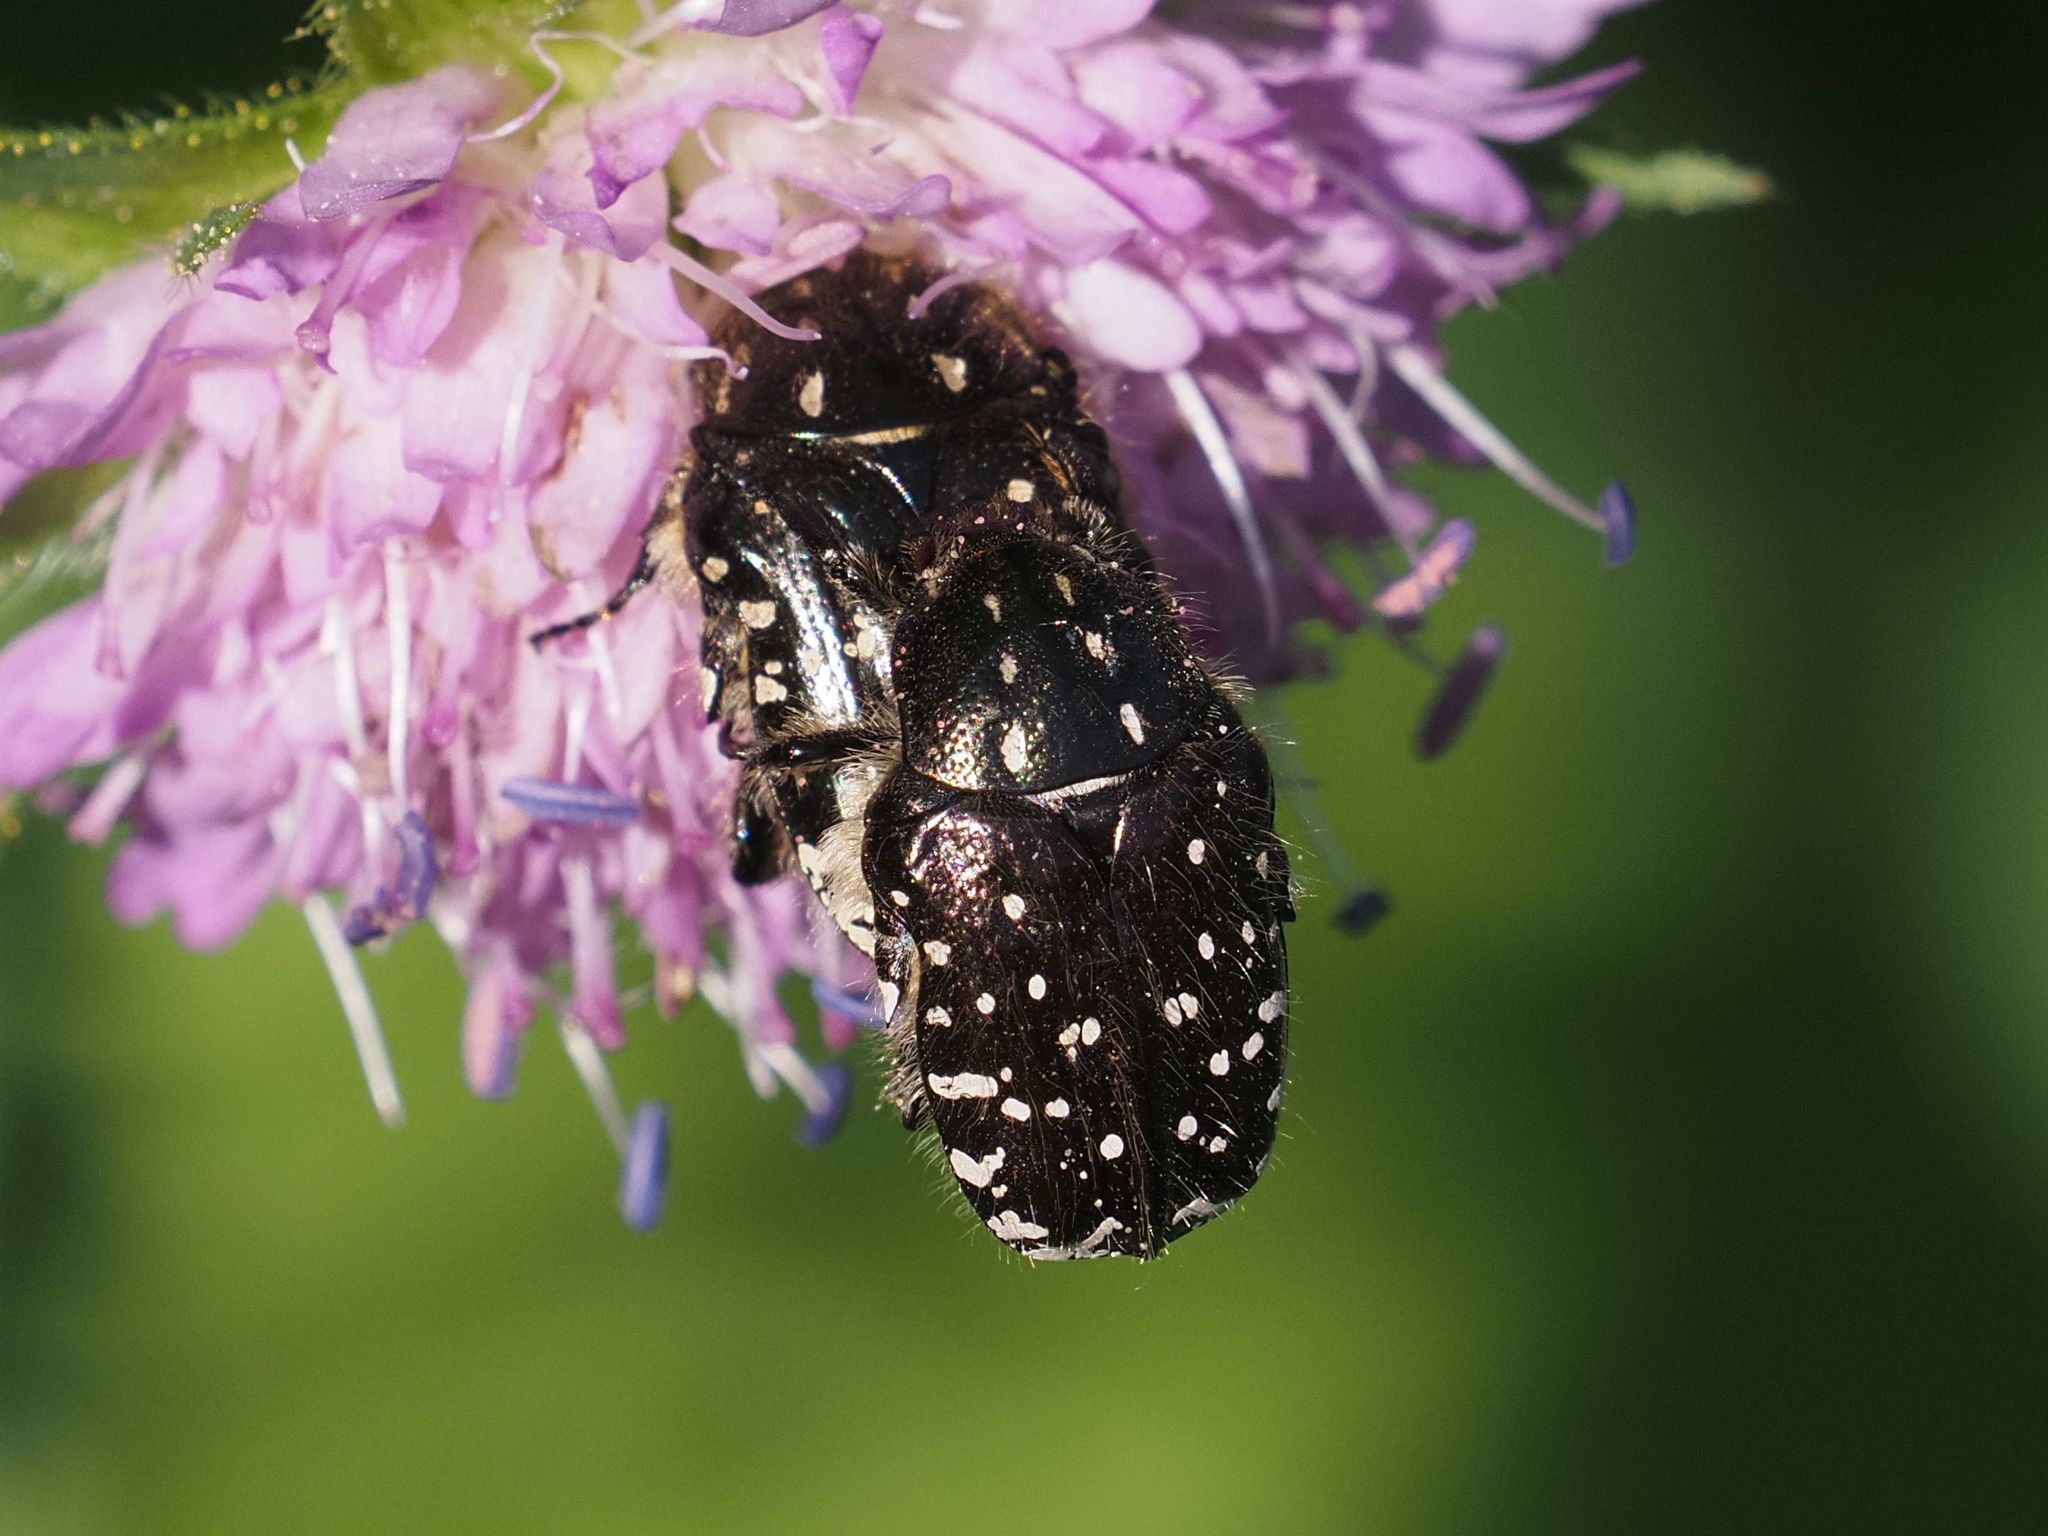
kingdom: Animalia
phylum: Arthropoda
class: Insecta
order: Coleoptera
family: Scarabaeidae
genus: Oxythyrea
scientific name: Oxythyrea funesta
